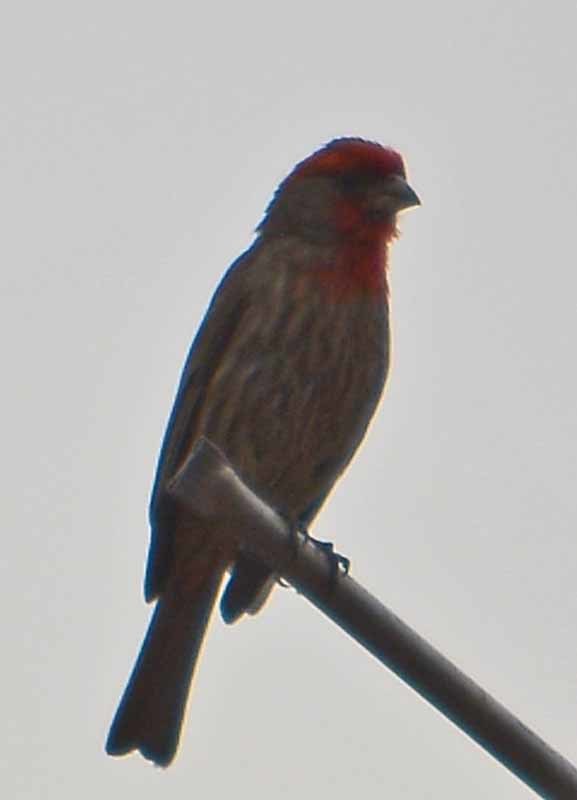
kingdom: Animalia
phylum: Chordata
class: Aves
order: Passeriformes
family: Fringillidae
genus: Haemorhous
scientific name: Haemorhous mexicanus
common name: House finch
